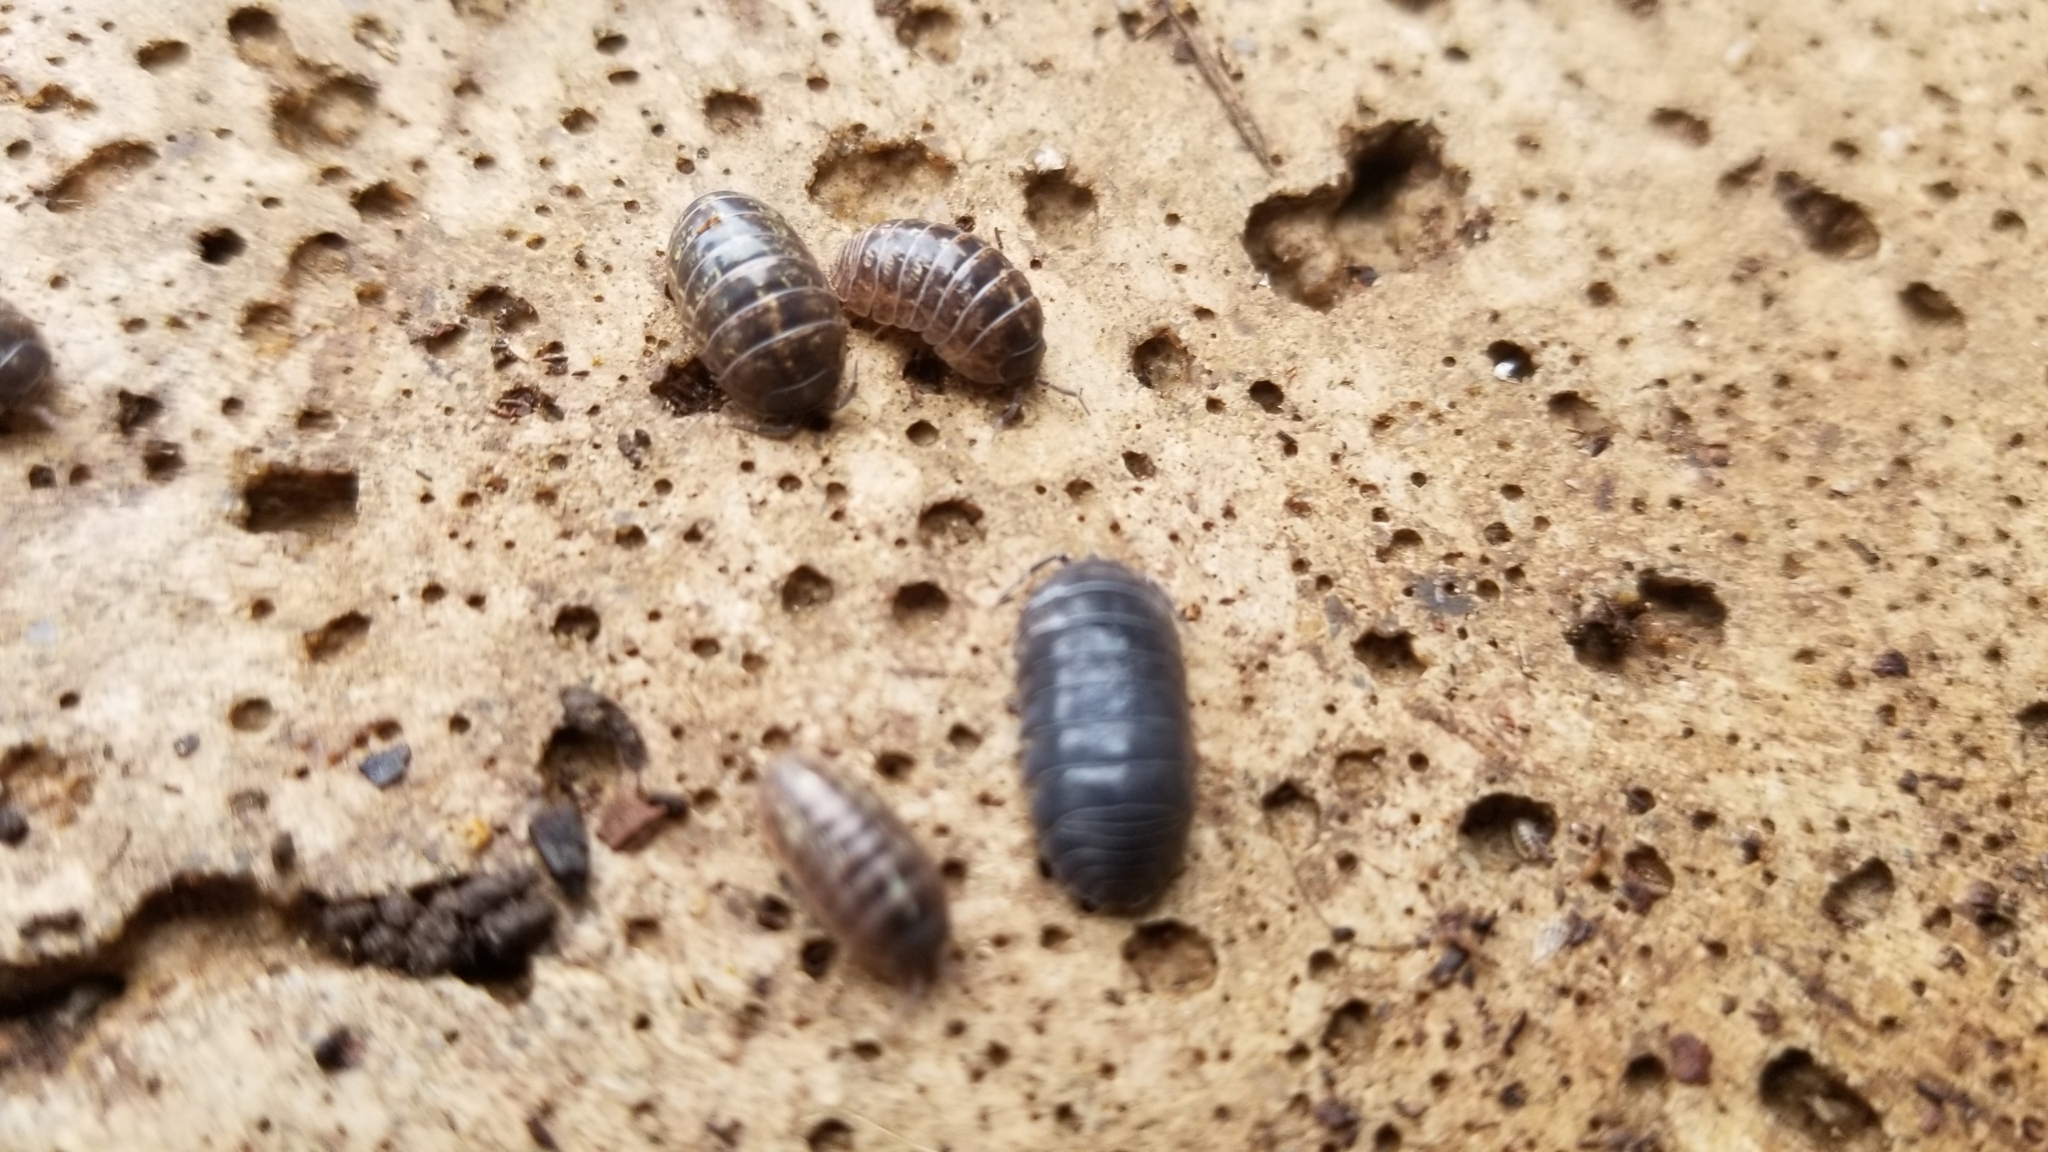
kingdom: Animalia
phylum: Arthropoda
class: Malacostraca
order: Isopoda
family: Armadillidiidae
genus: Armadillidium
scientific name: Armadillidium vulgare
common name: Common pill woodlouse
